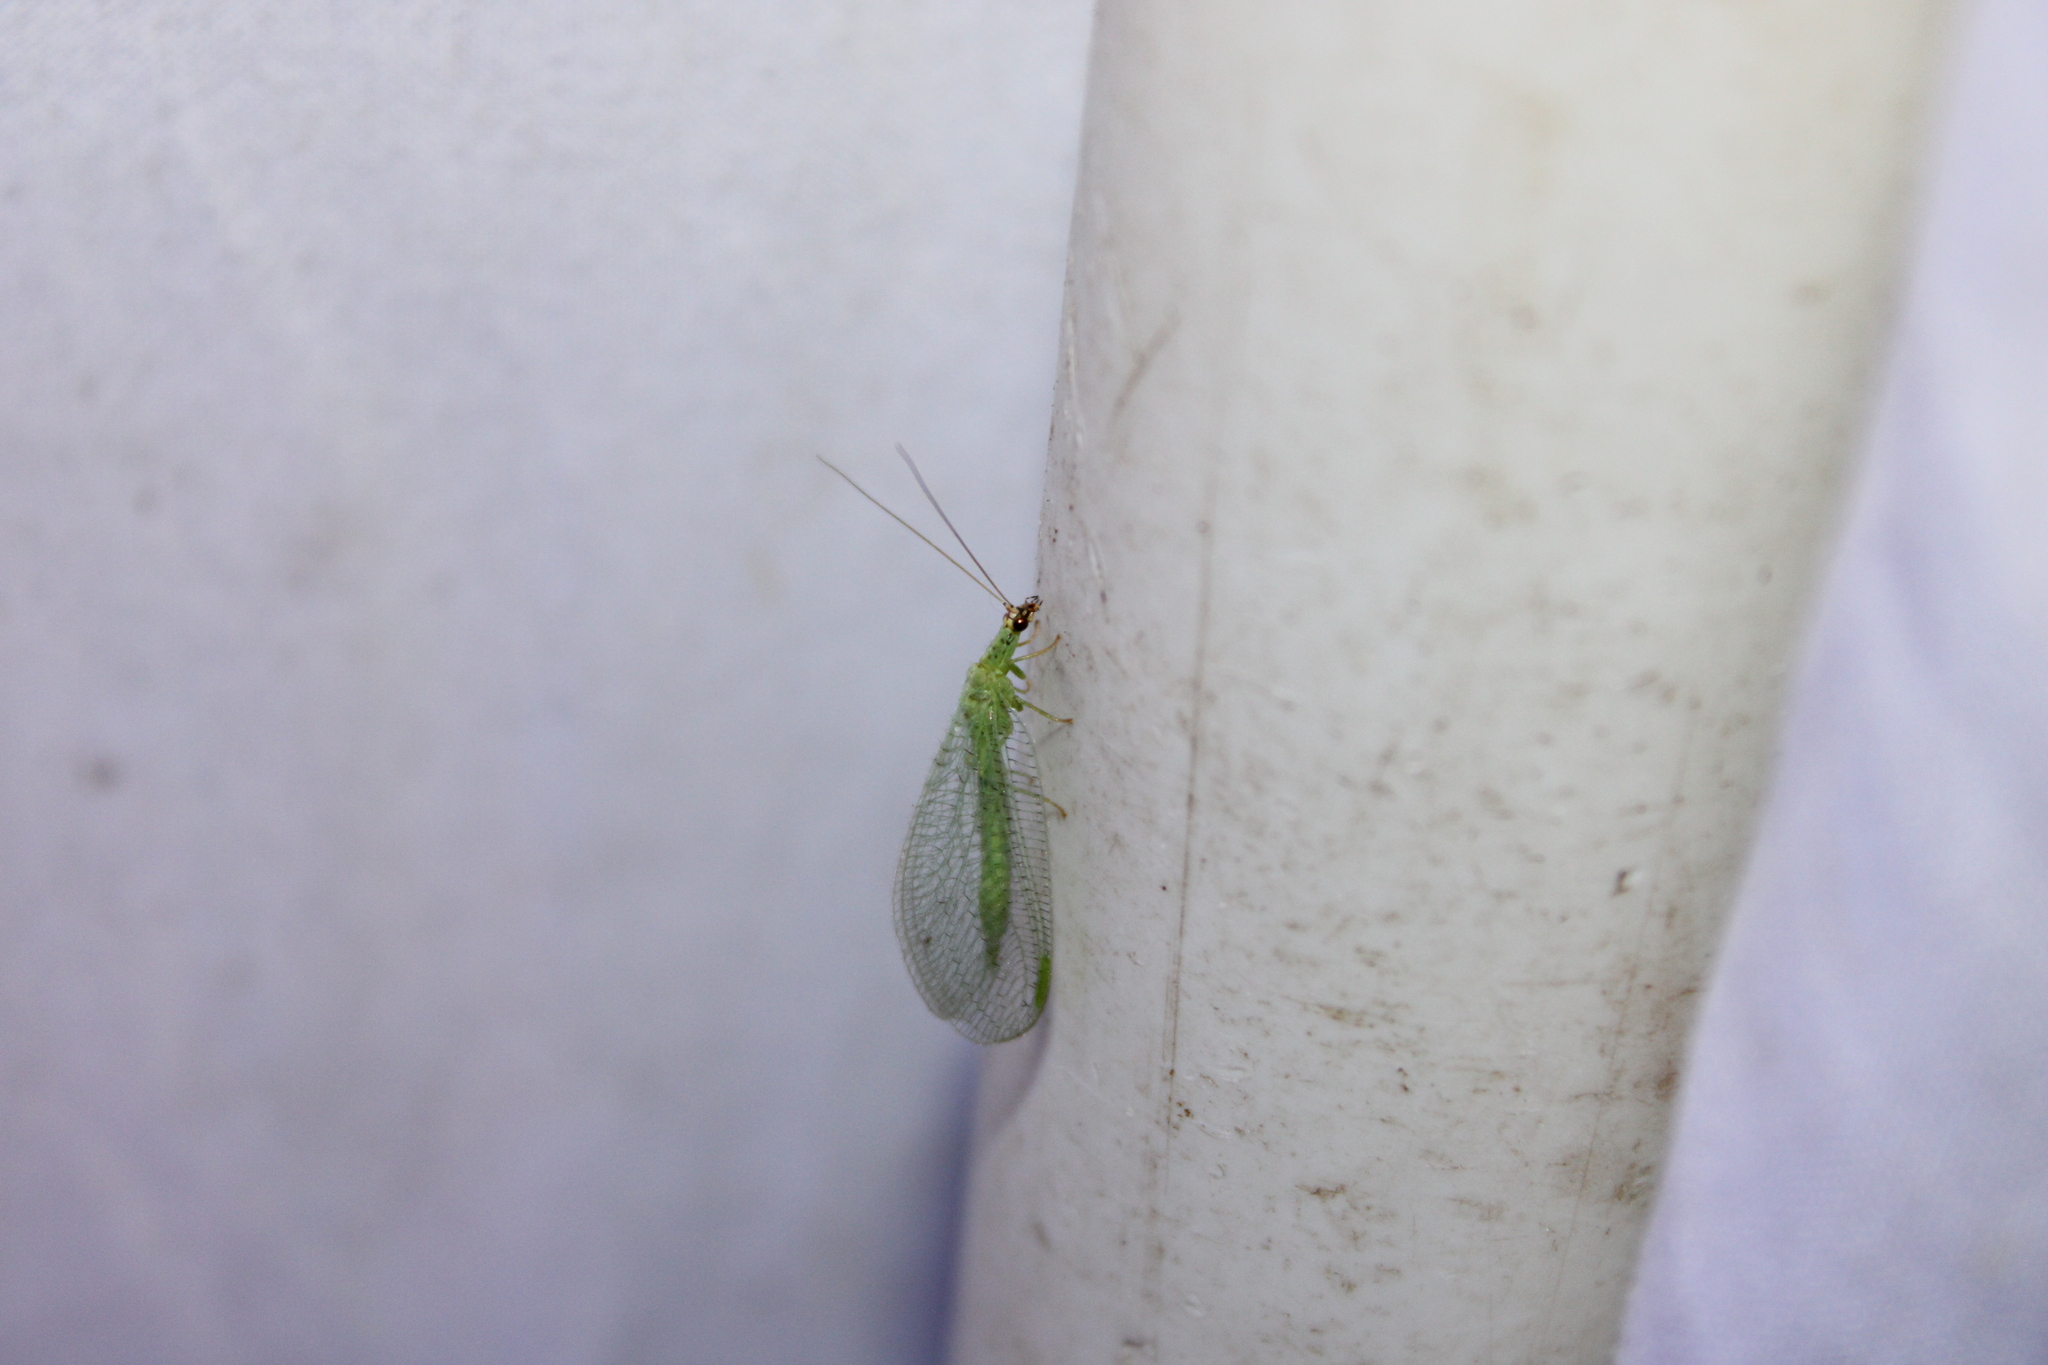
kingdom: Animalia
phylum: Arthropoda
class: Insecta
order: Neuroptera
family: Chrysopidae
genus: Chrysopa
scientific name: Chrysopa oculata
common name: Golden-eyed lacewing
